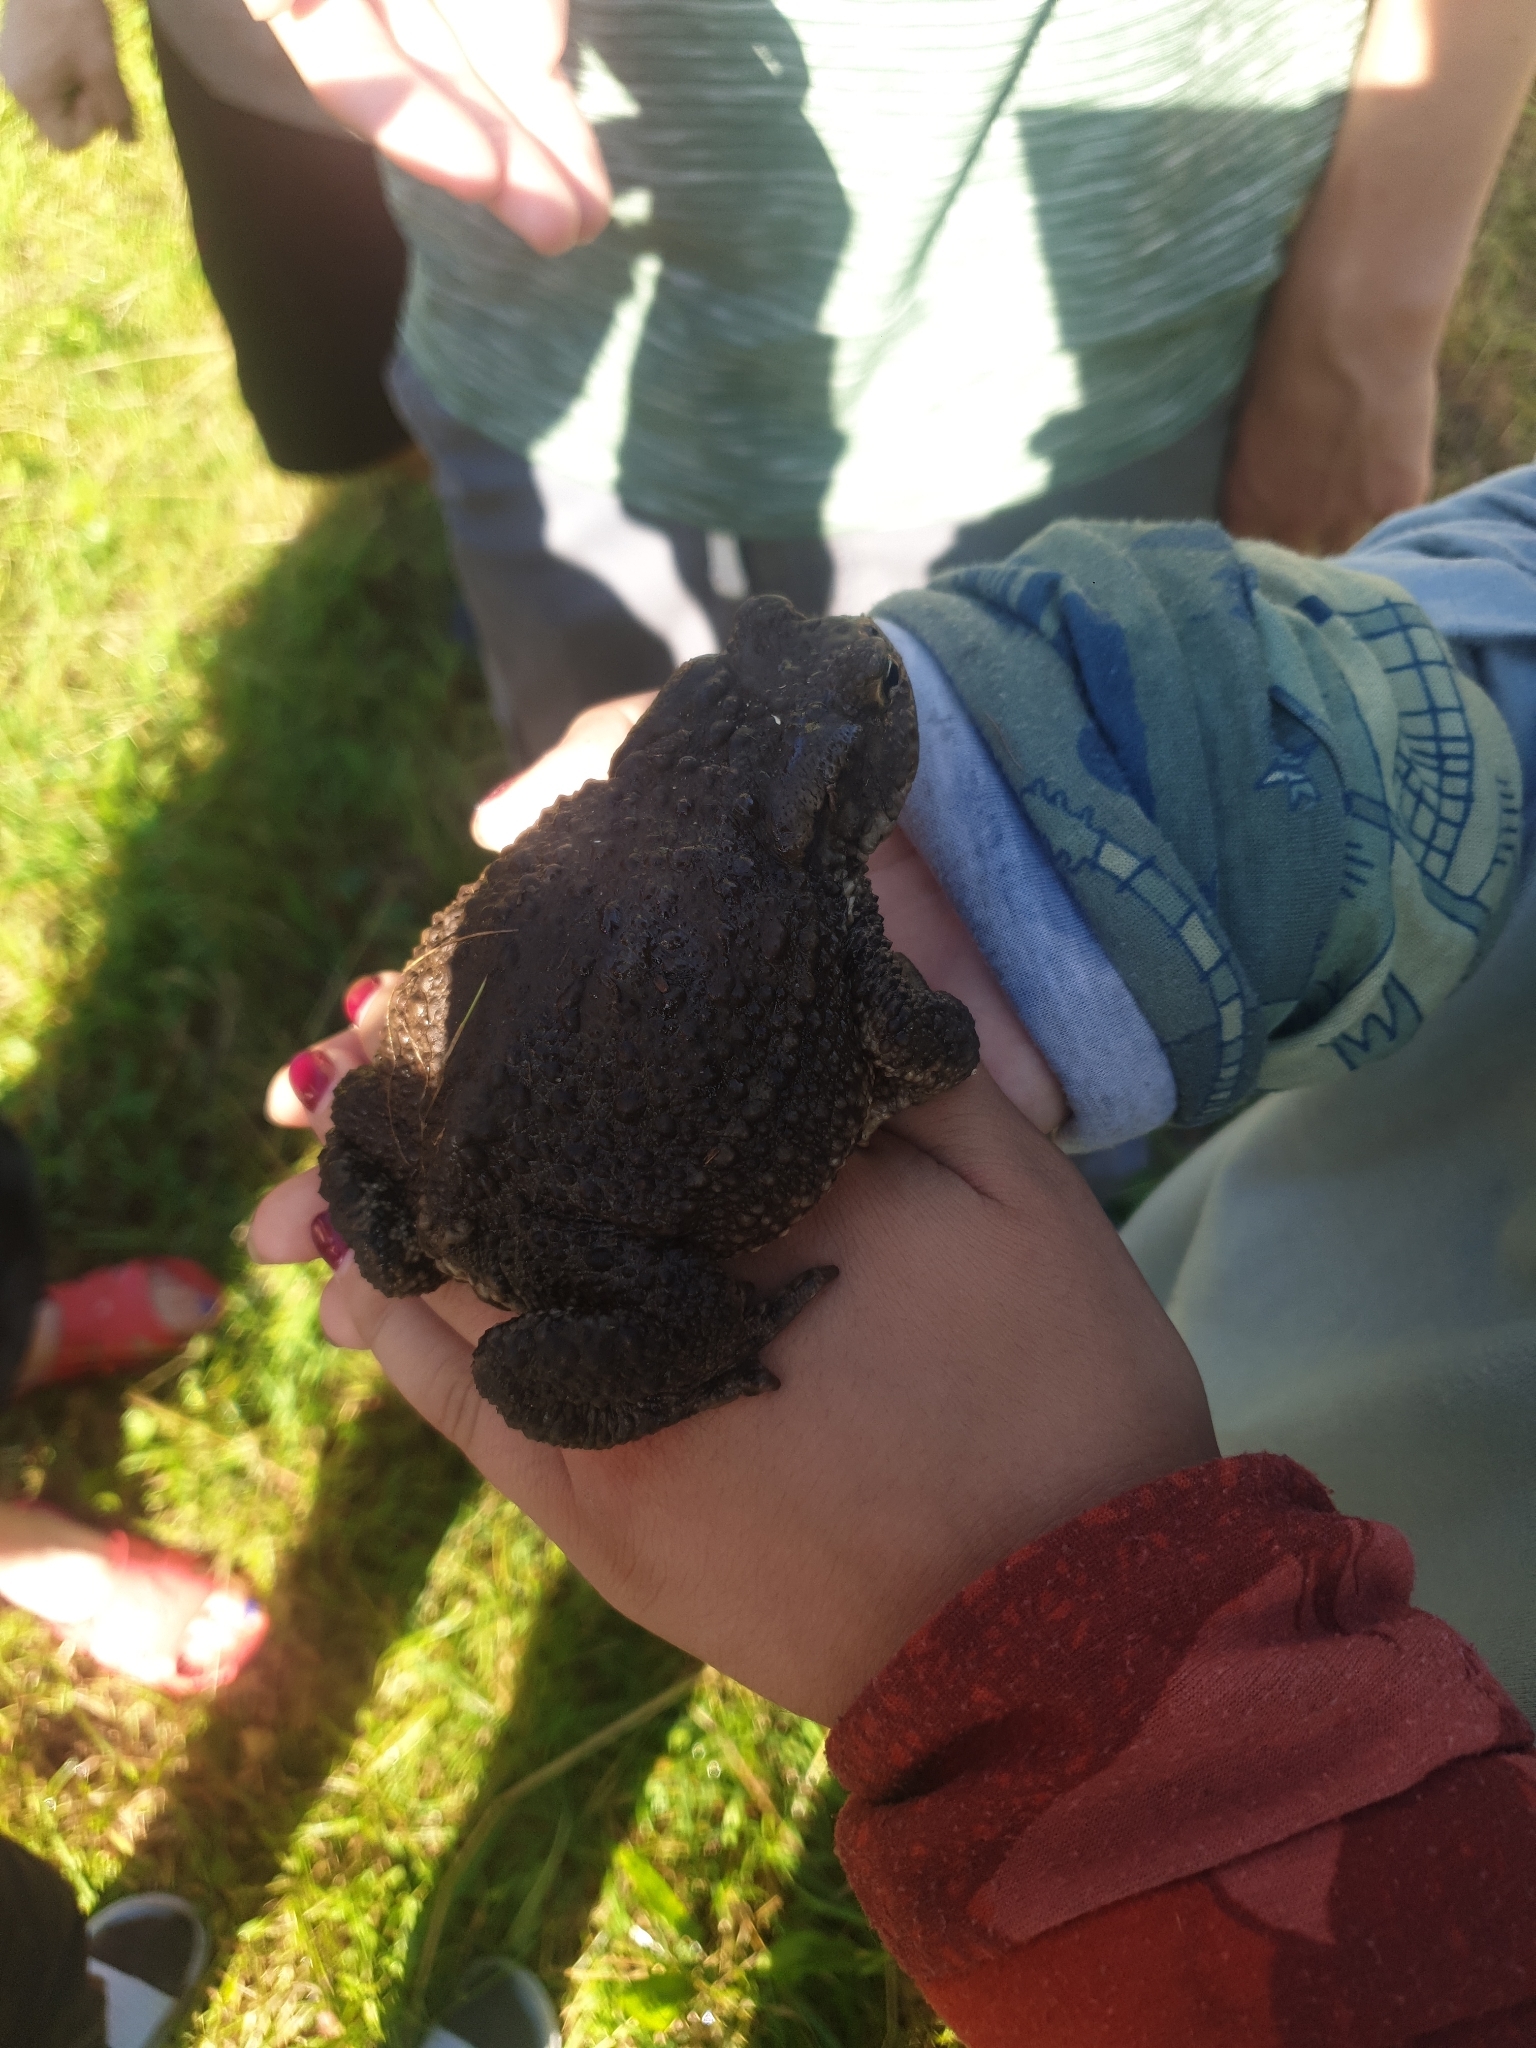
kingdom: Animalia
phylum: Chordata
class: Amphibia
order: Anura
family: Bufonidae
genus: Bufo
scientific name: Bufo bufo
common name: Common toad
